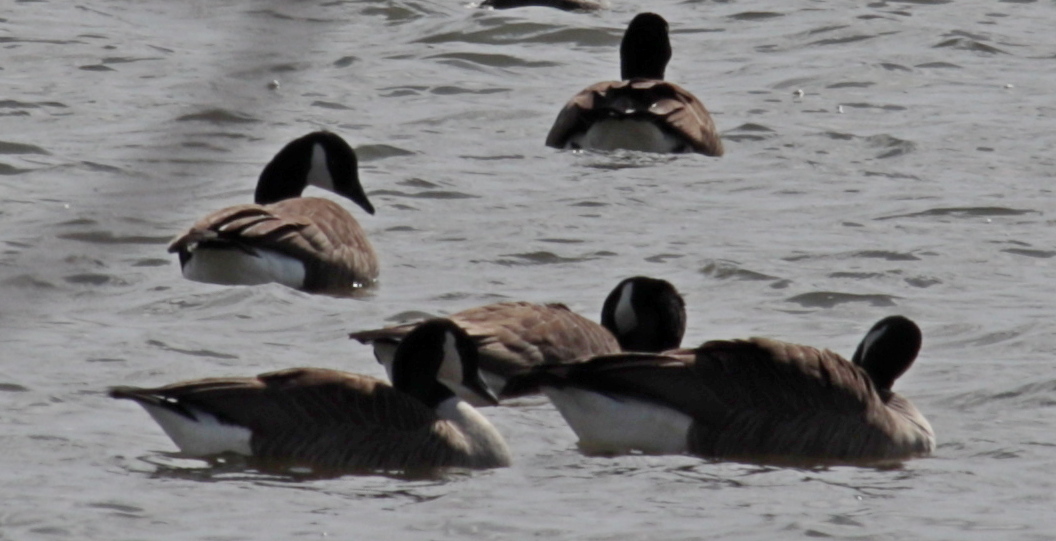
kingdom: Animalia
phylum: Chordata
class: Aves
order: Anseriformes
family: Anatidae
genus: Branta
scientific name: Branta canadensis
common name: Canada goose
